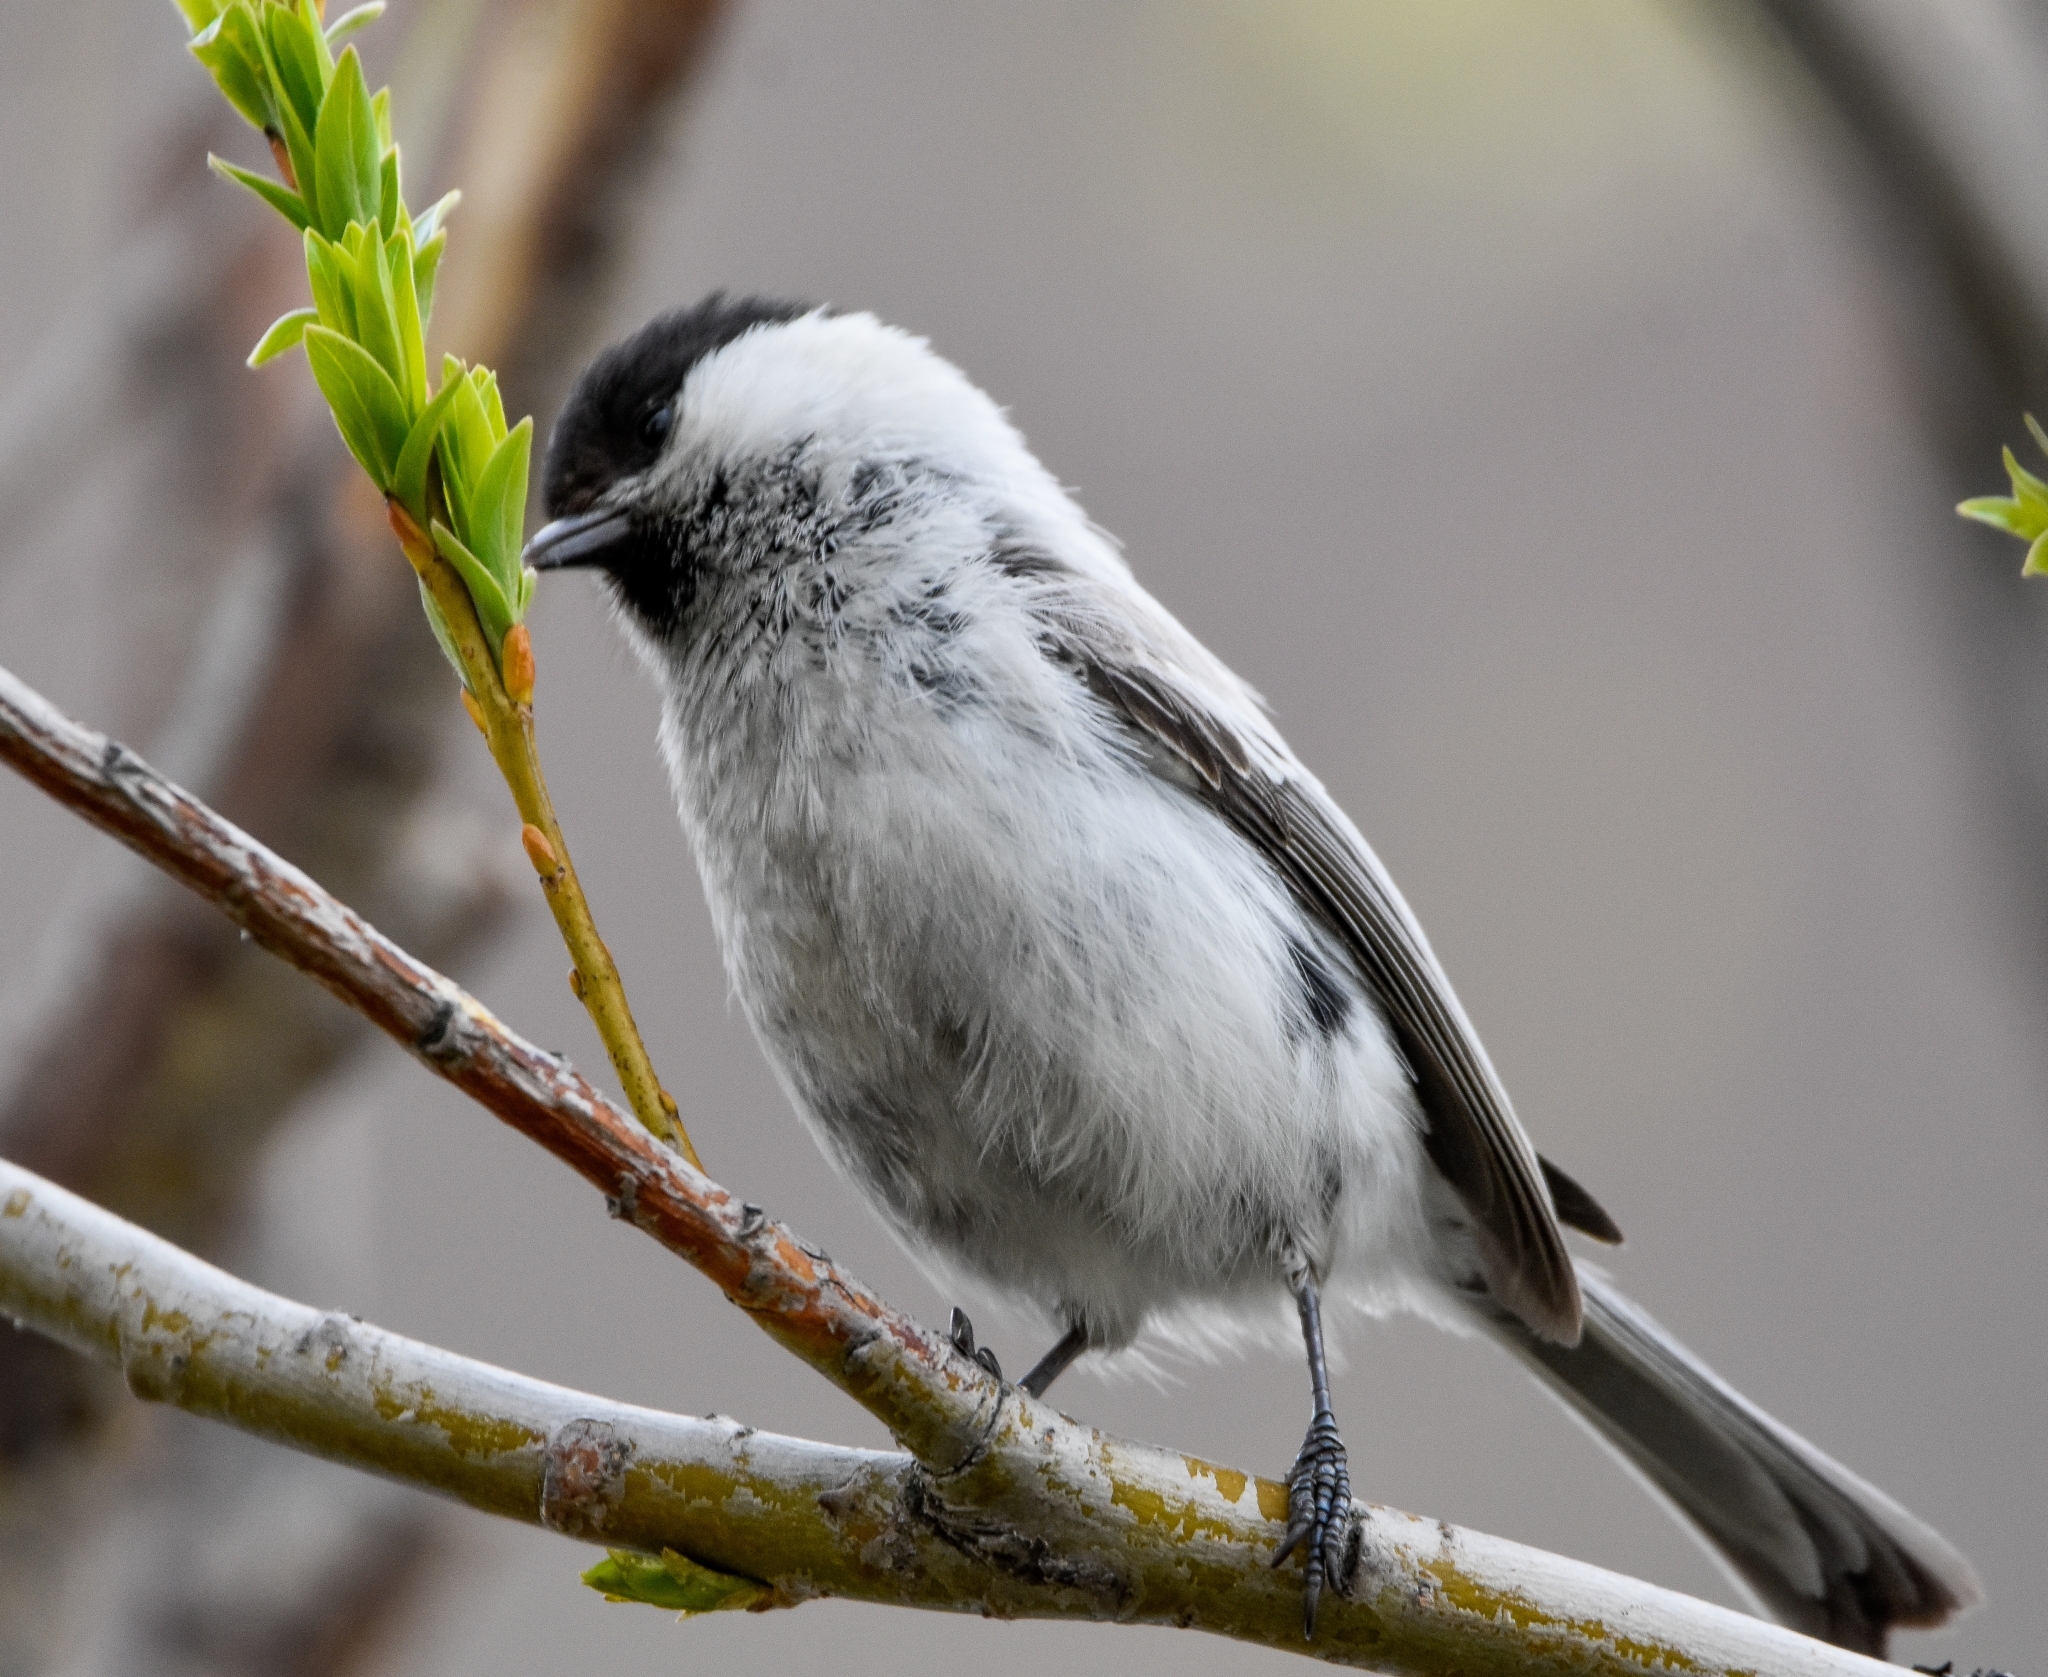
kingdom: Animalia
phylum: Chordata
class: Aves
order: Passeriformes
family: Paridae
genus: Poecile
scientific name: Poecile montanus
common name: Willow tit
